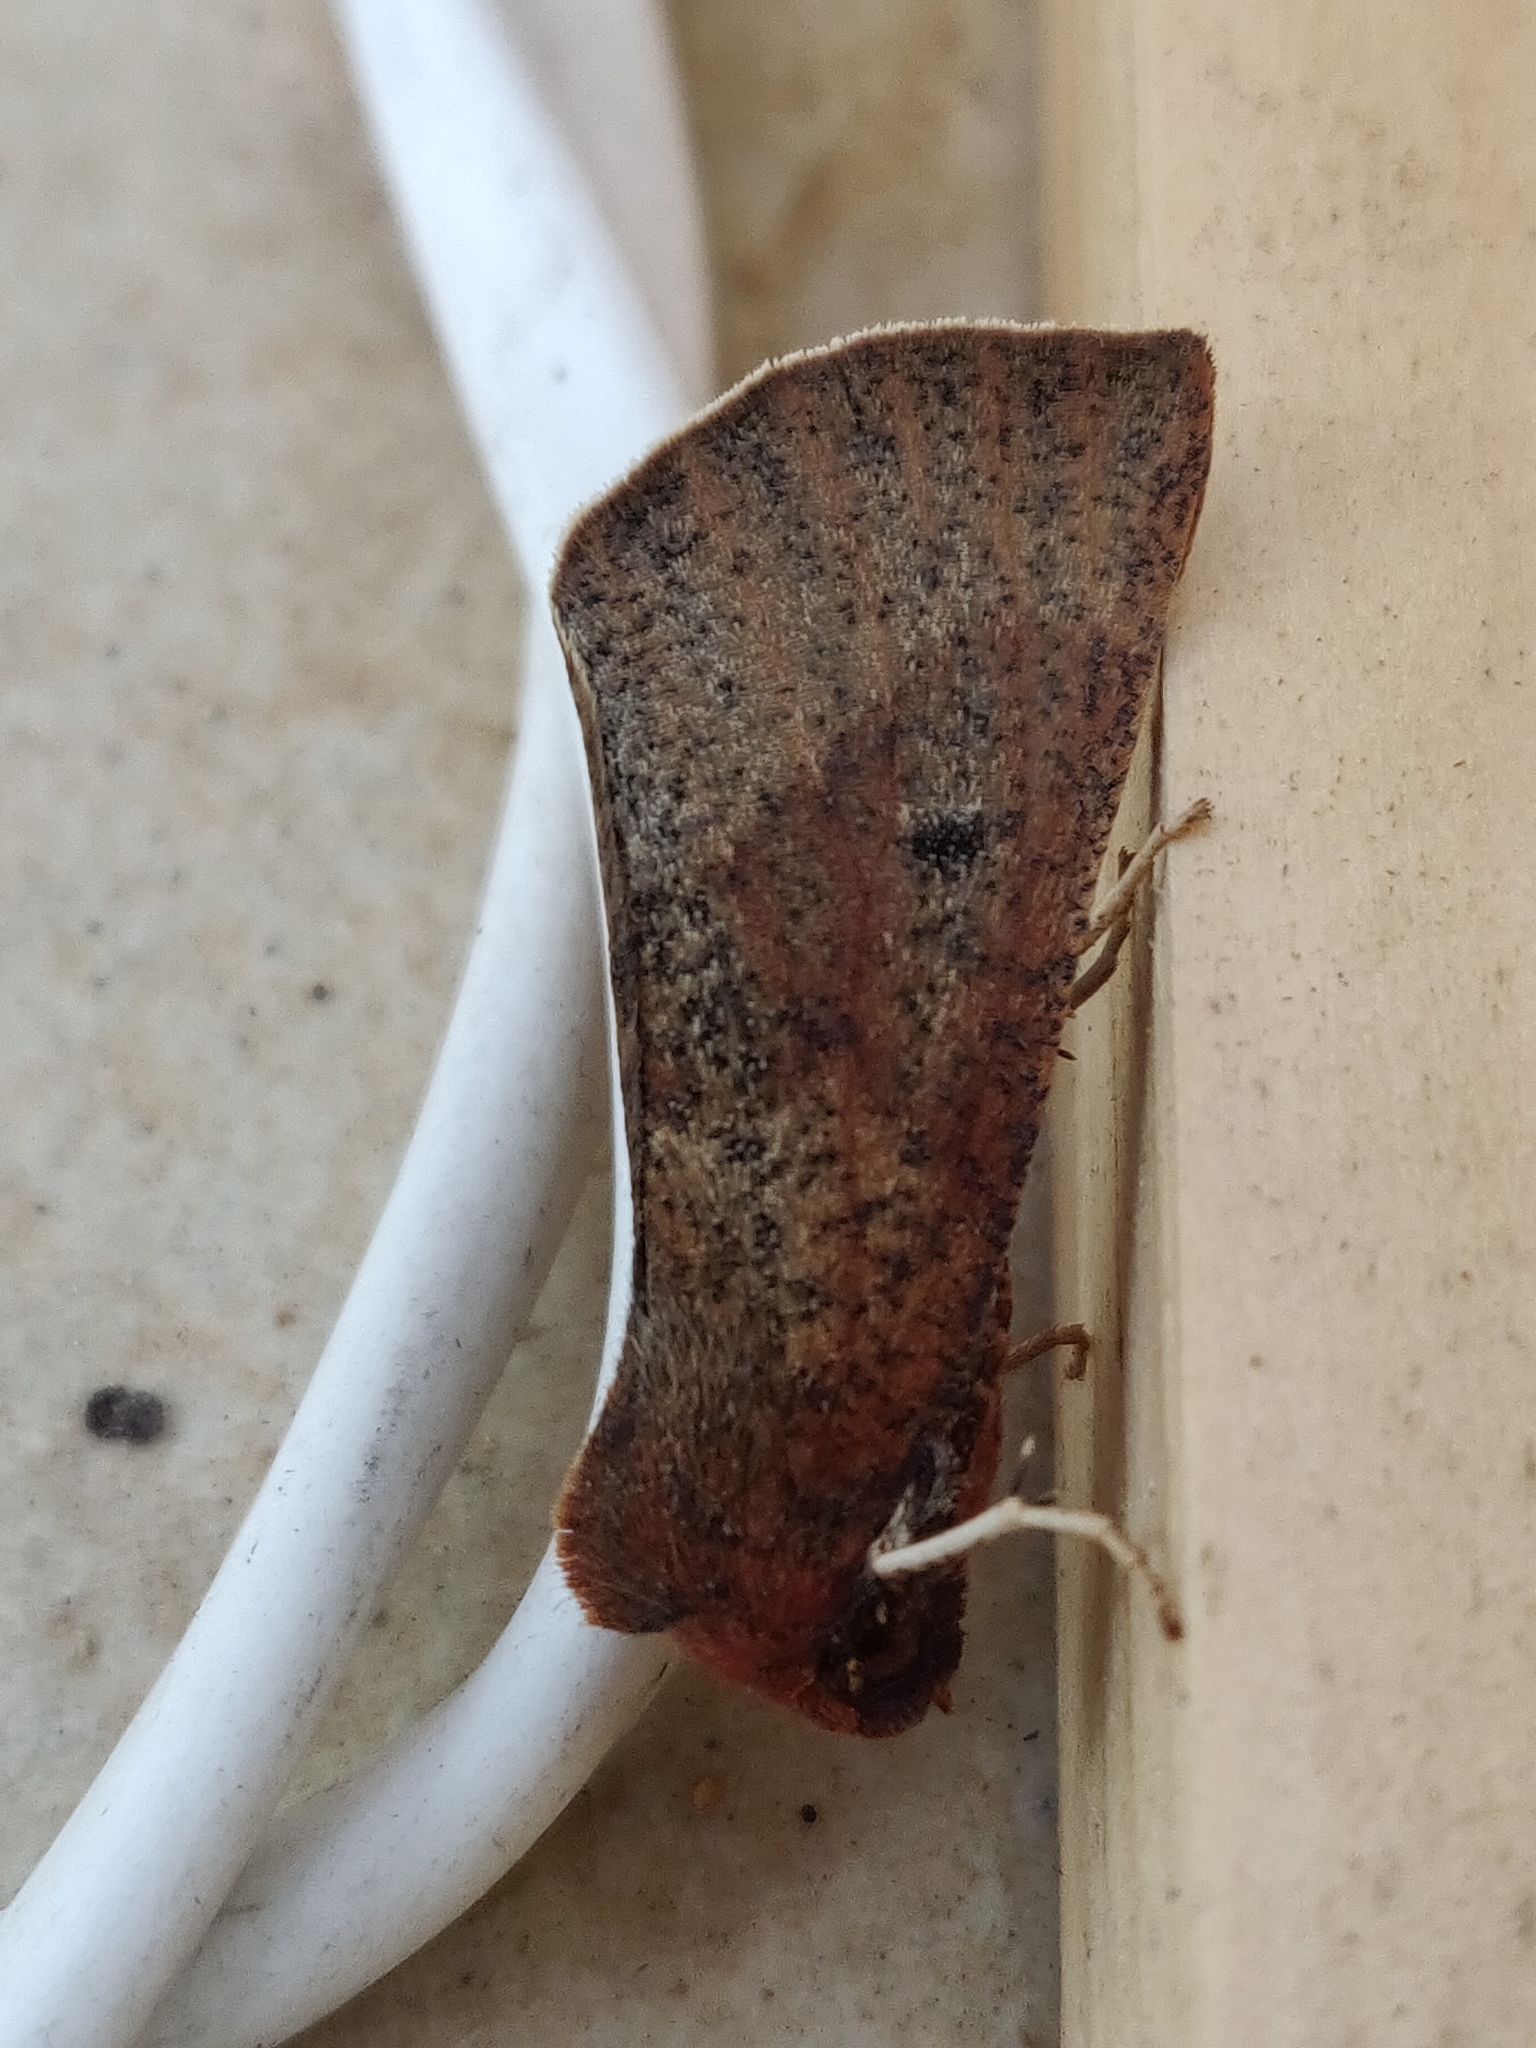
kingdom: Animalia
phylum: Arthropoda
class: Insecta
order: Lepidoptera
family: Geometridae
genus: Fisera
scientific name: Fisera belidearia
